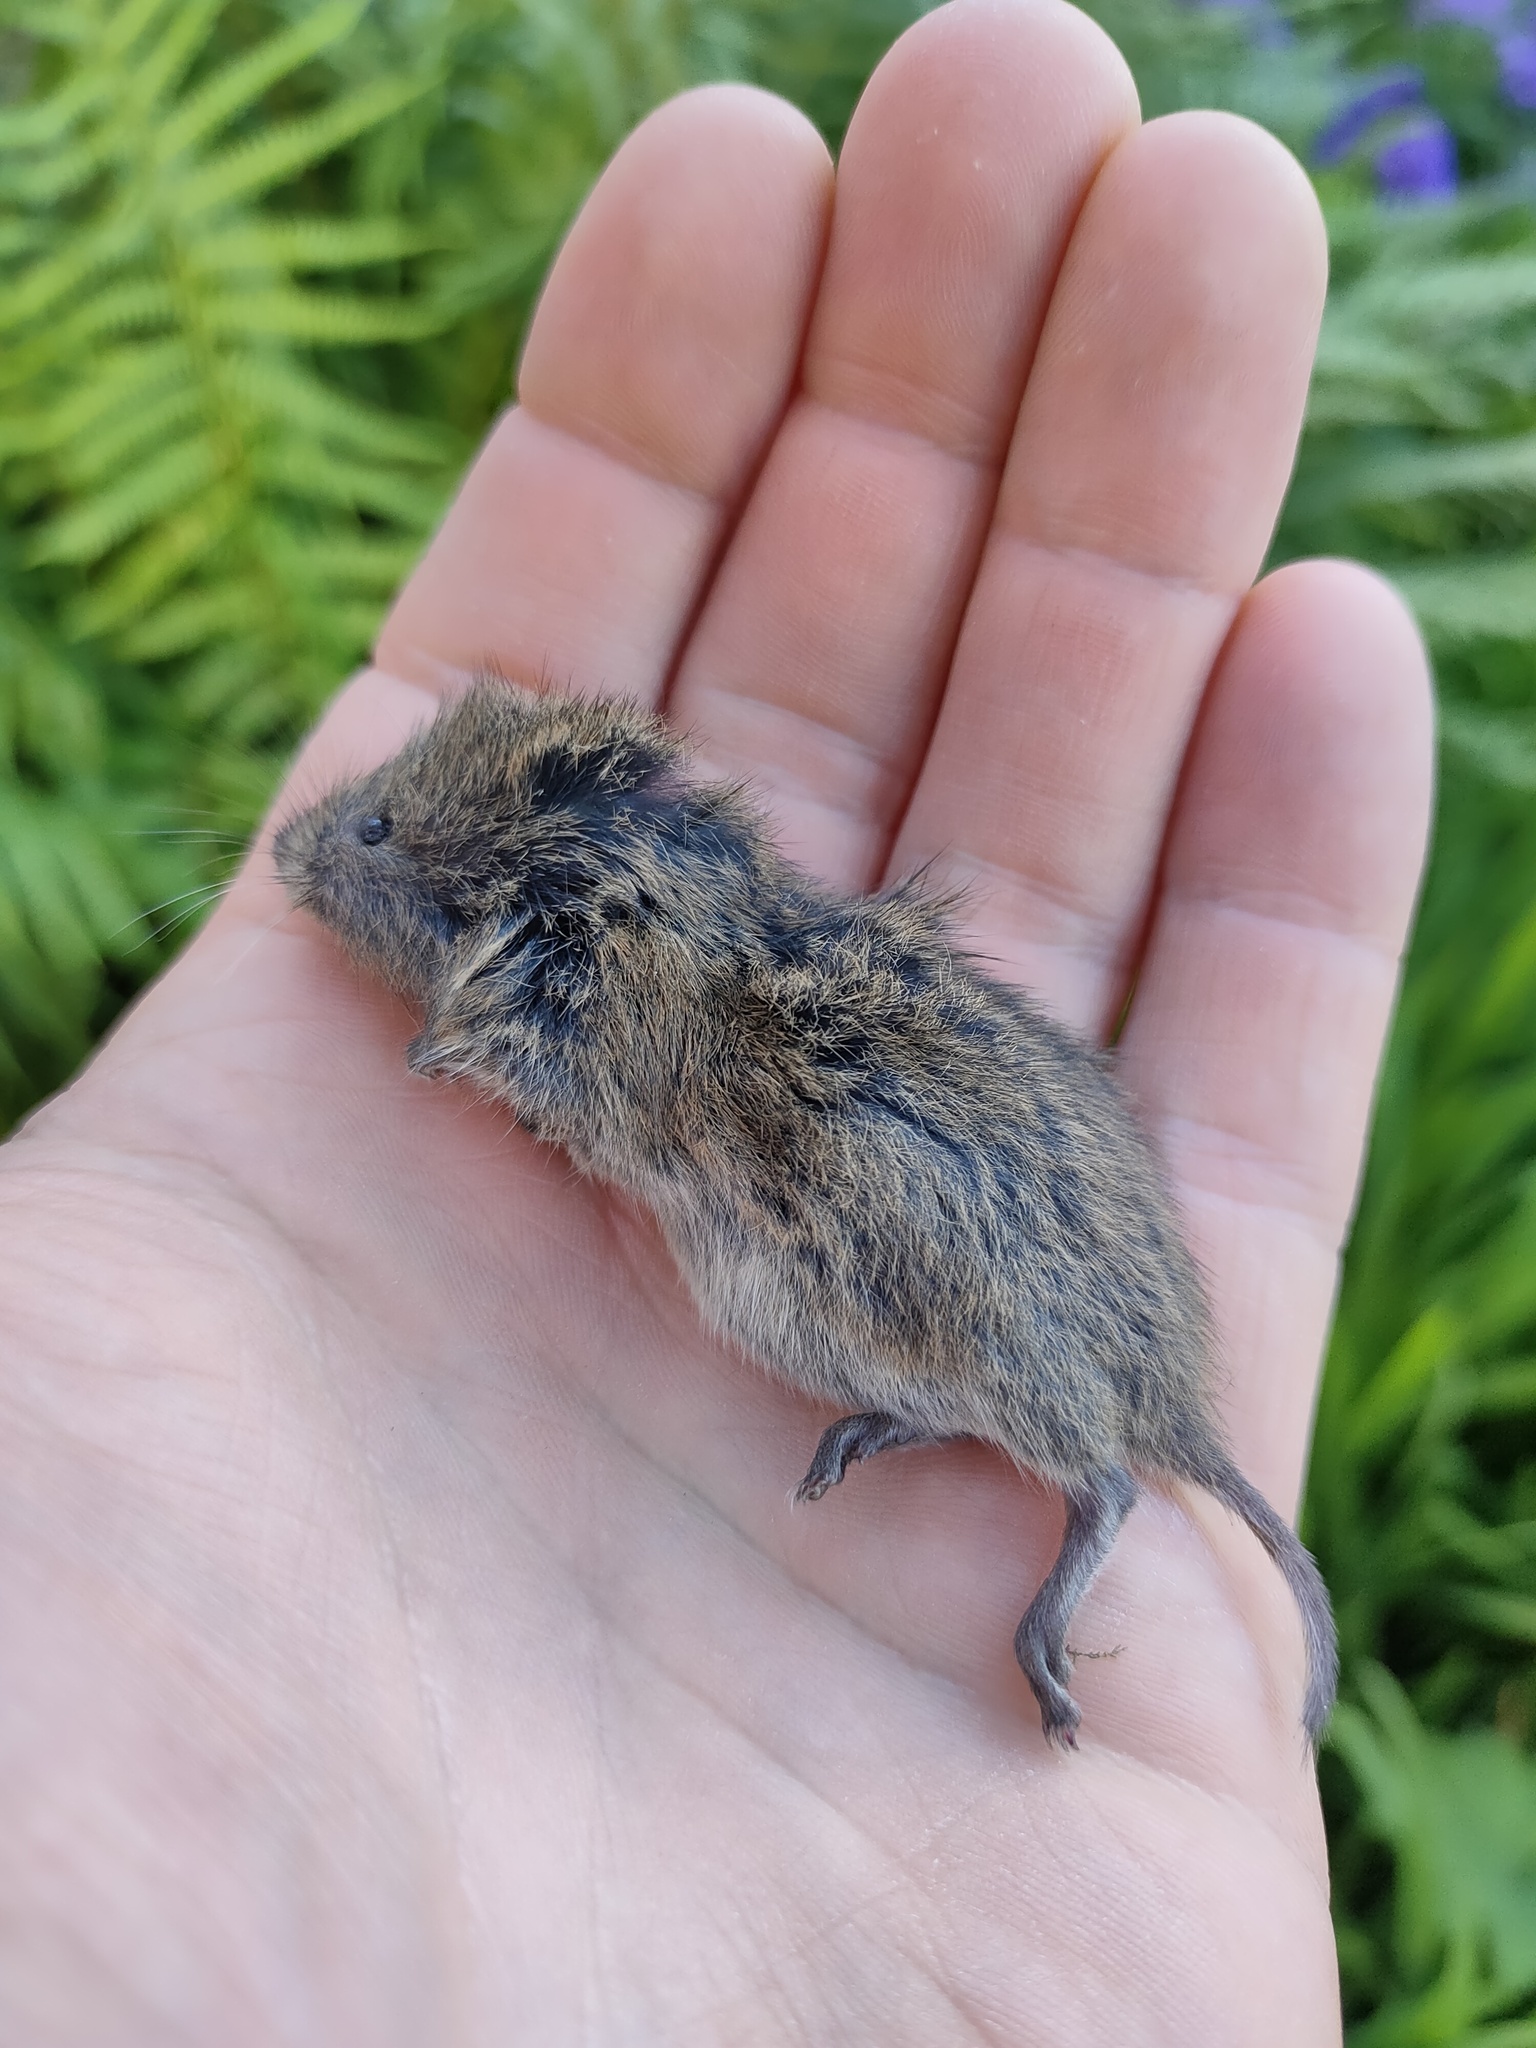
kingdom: Animalia
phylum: Chordata
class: Mammalia
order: Rodentia
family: Cricetidae
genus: Microtus
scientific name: Microtus agrestis
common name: Field vole
